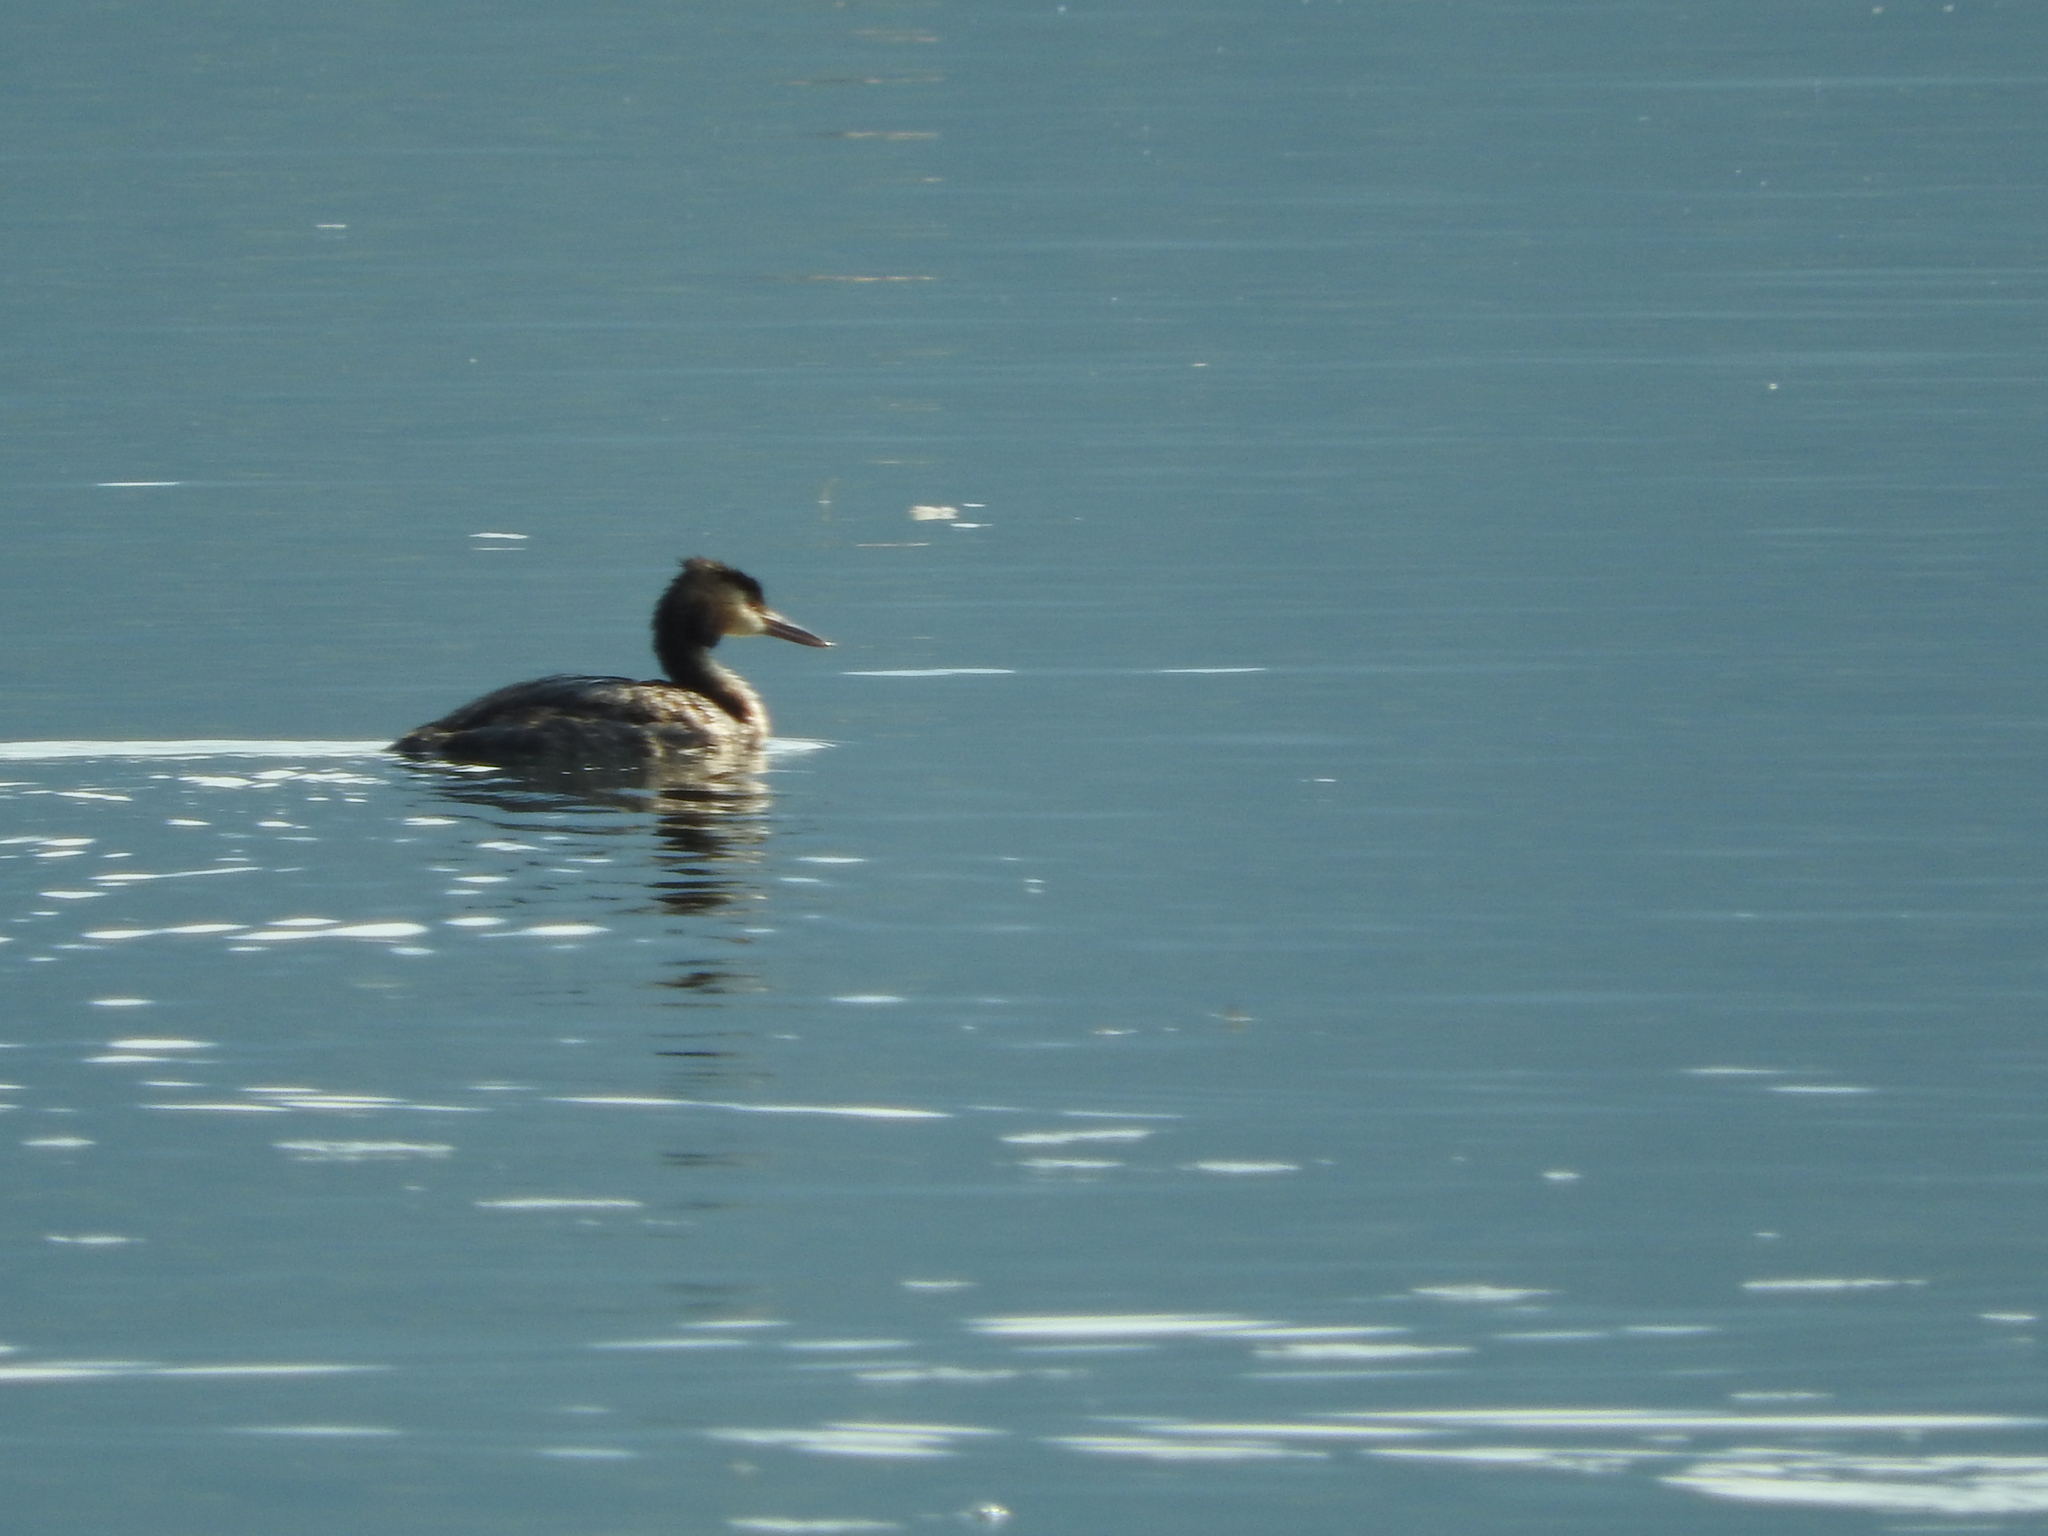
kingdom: Animalia
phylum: Chordata
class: Aves
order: Podicipediformes
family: Podicipedidae
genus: Podiceps
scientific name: Podiceps cristatus
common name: Great crested grebe
